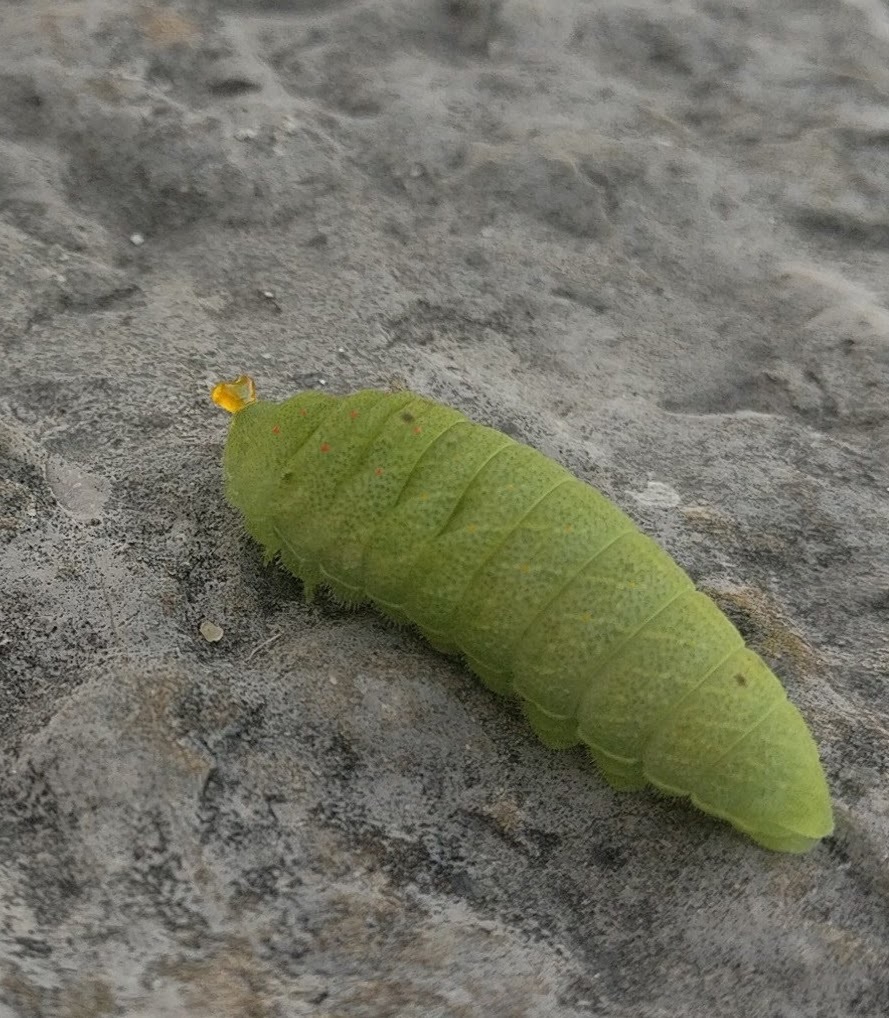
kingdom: Animalia
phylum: Arthropoda
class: Insecta
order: Lepidoptera
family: Papilionidae
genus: Iphiclides
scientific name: Iphiclides feisthamelii
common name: Iberian scarce swallowtail
